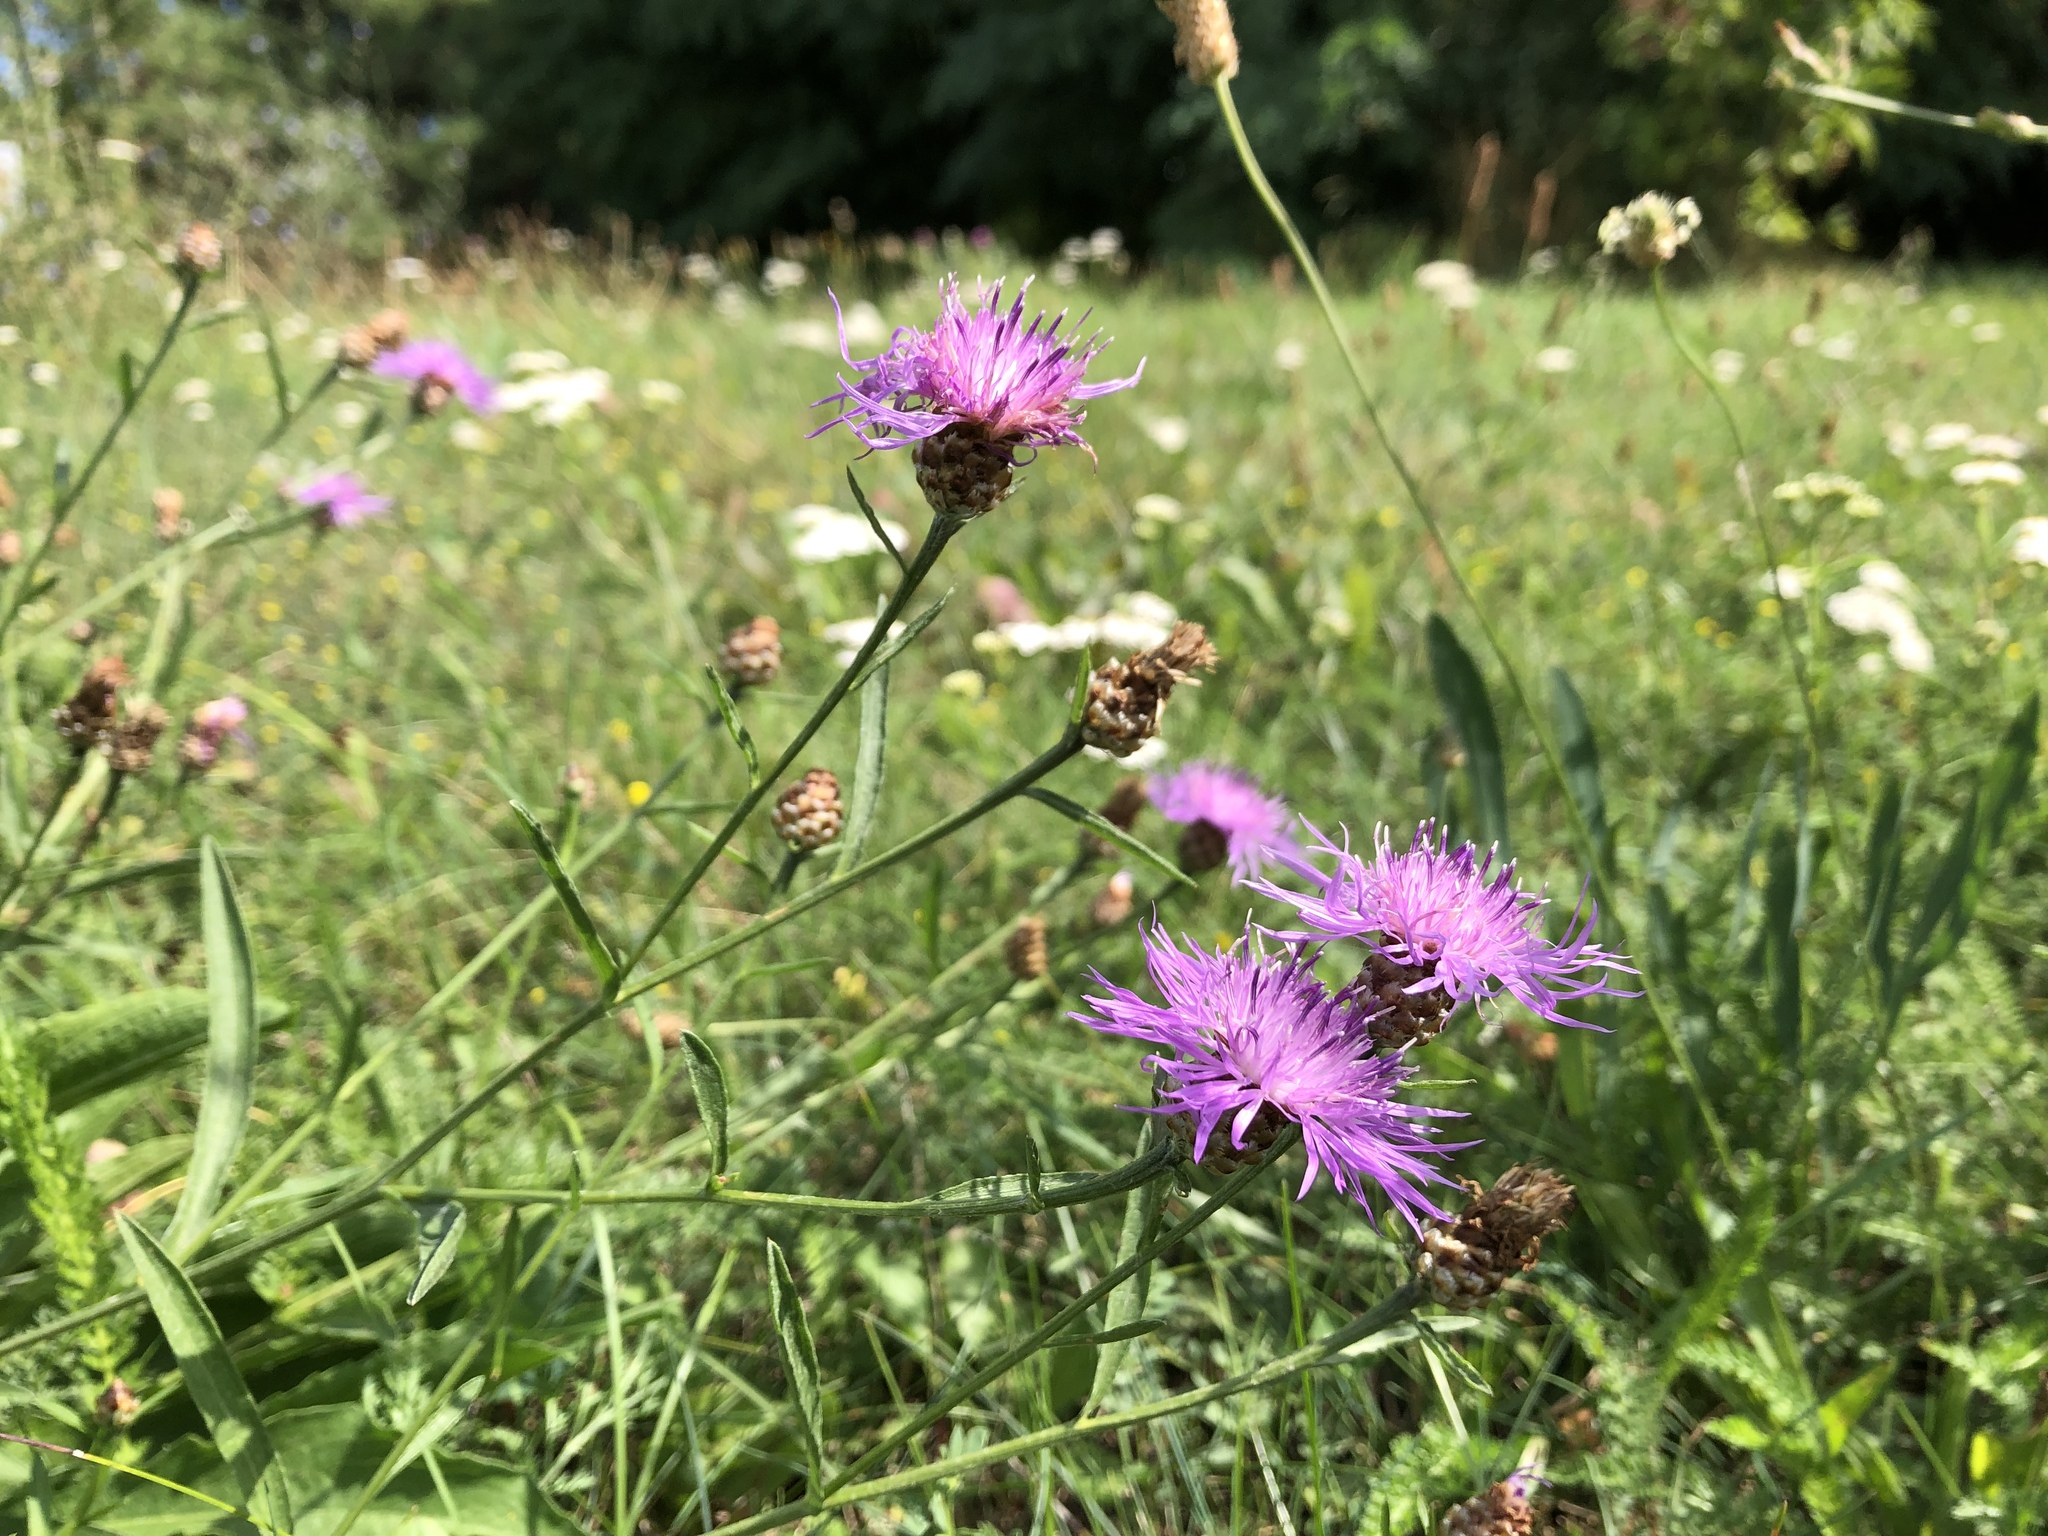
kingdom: Plantae
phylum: Tracheophyta
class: Magnoliopsida
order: Asterales
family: Asteraceae
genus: Centaurea
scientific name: Centaurea jacea
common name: Brown knapweed
